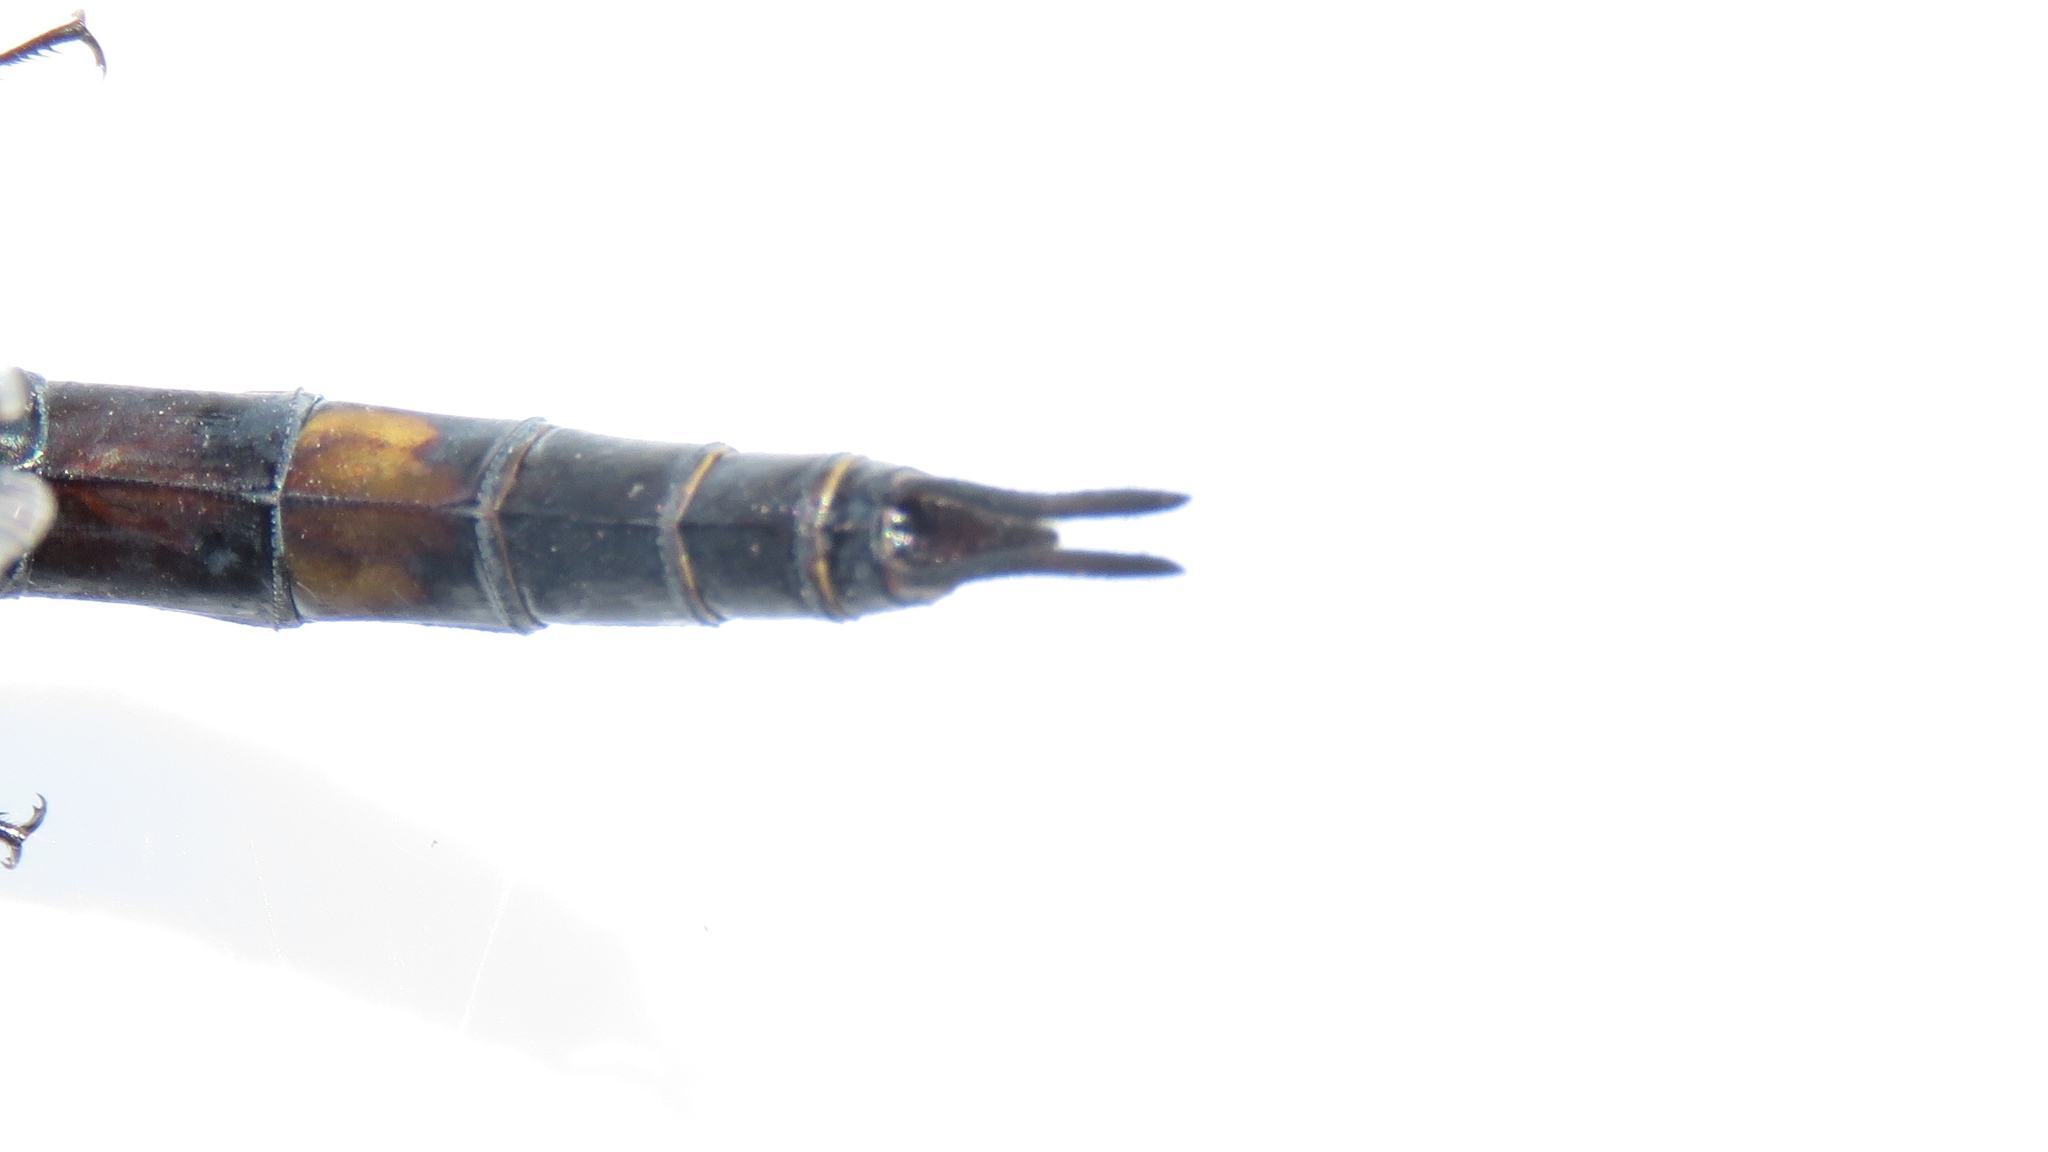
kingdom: Animalia
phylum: Arthropoda
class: Insecta
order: Odonata
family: Libellulidae
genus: Tramea
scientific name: Tramea lacerata
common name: Black saddlebags
